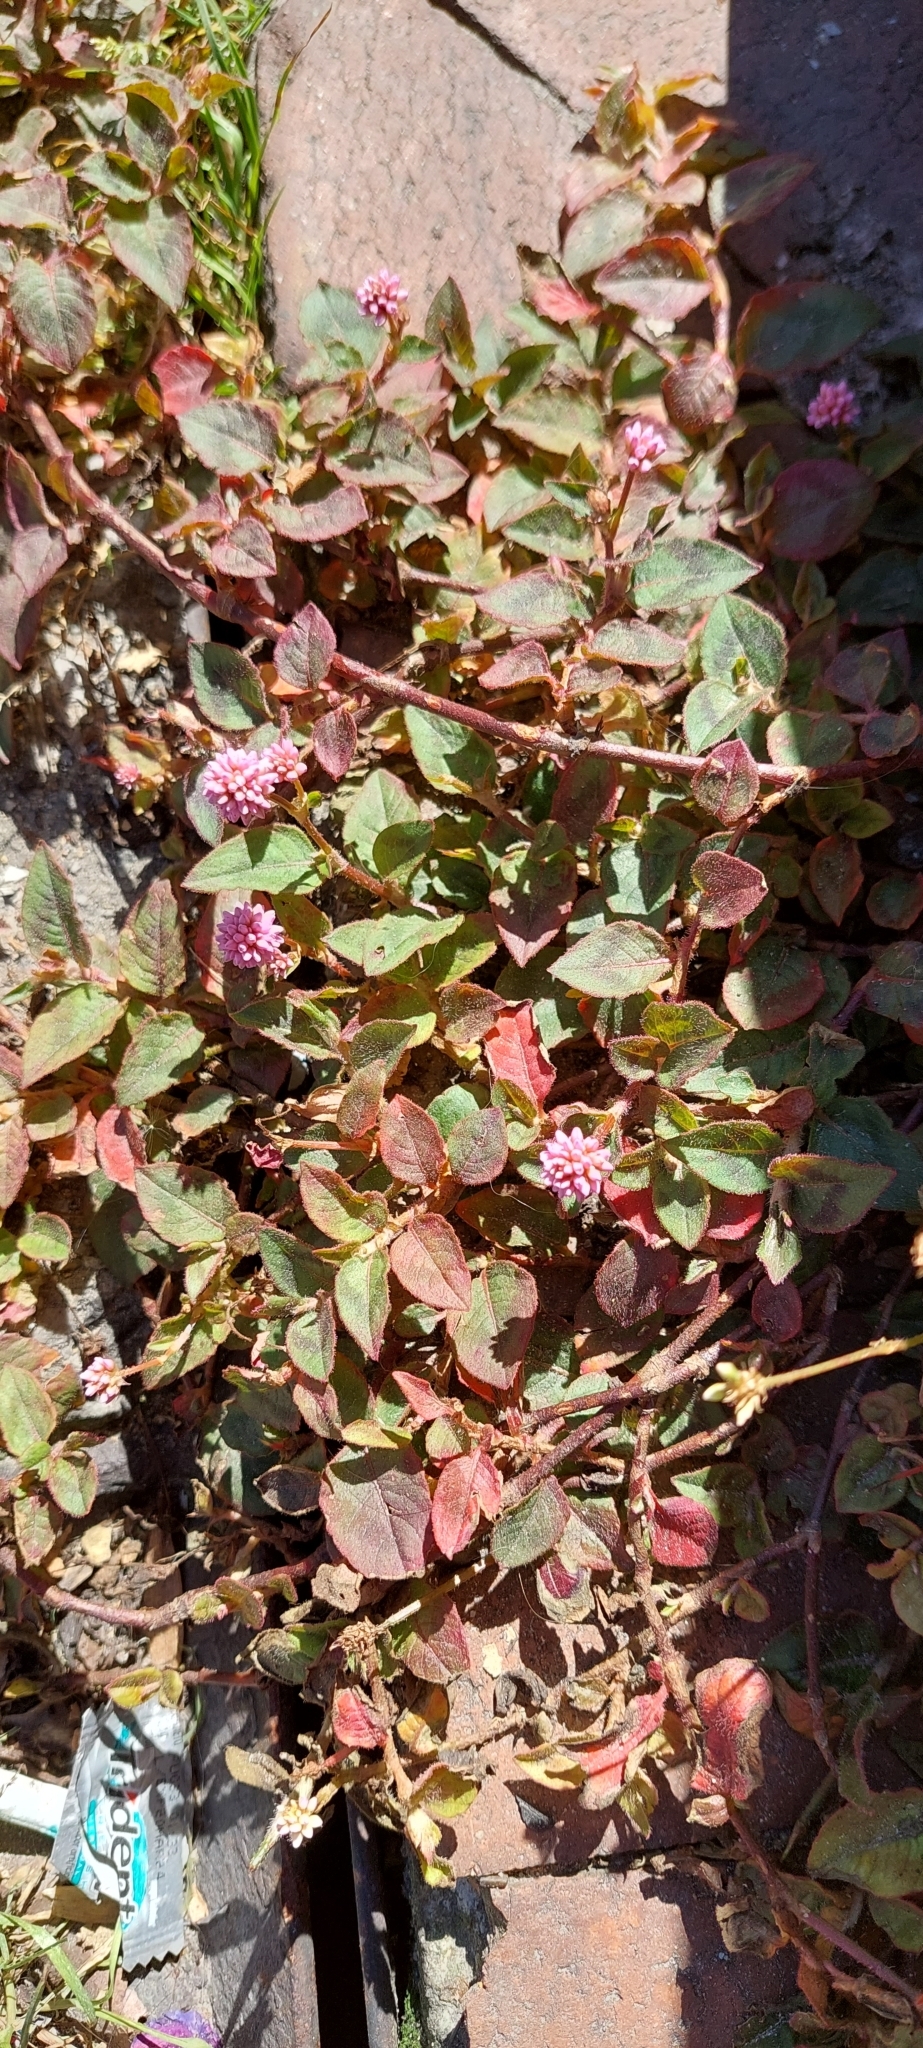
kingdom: Plantae
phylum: Tracheophyta
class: Magnoliopsida
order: Caryophyllales
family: Polygonaceae
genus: Persicaria
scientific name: Persicaria capitata
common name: Pinkhead smartweed
